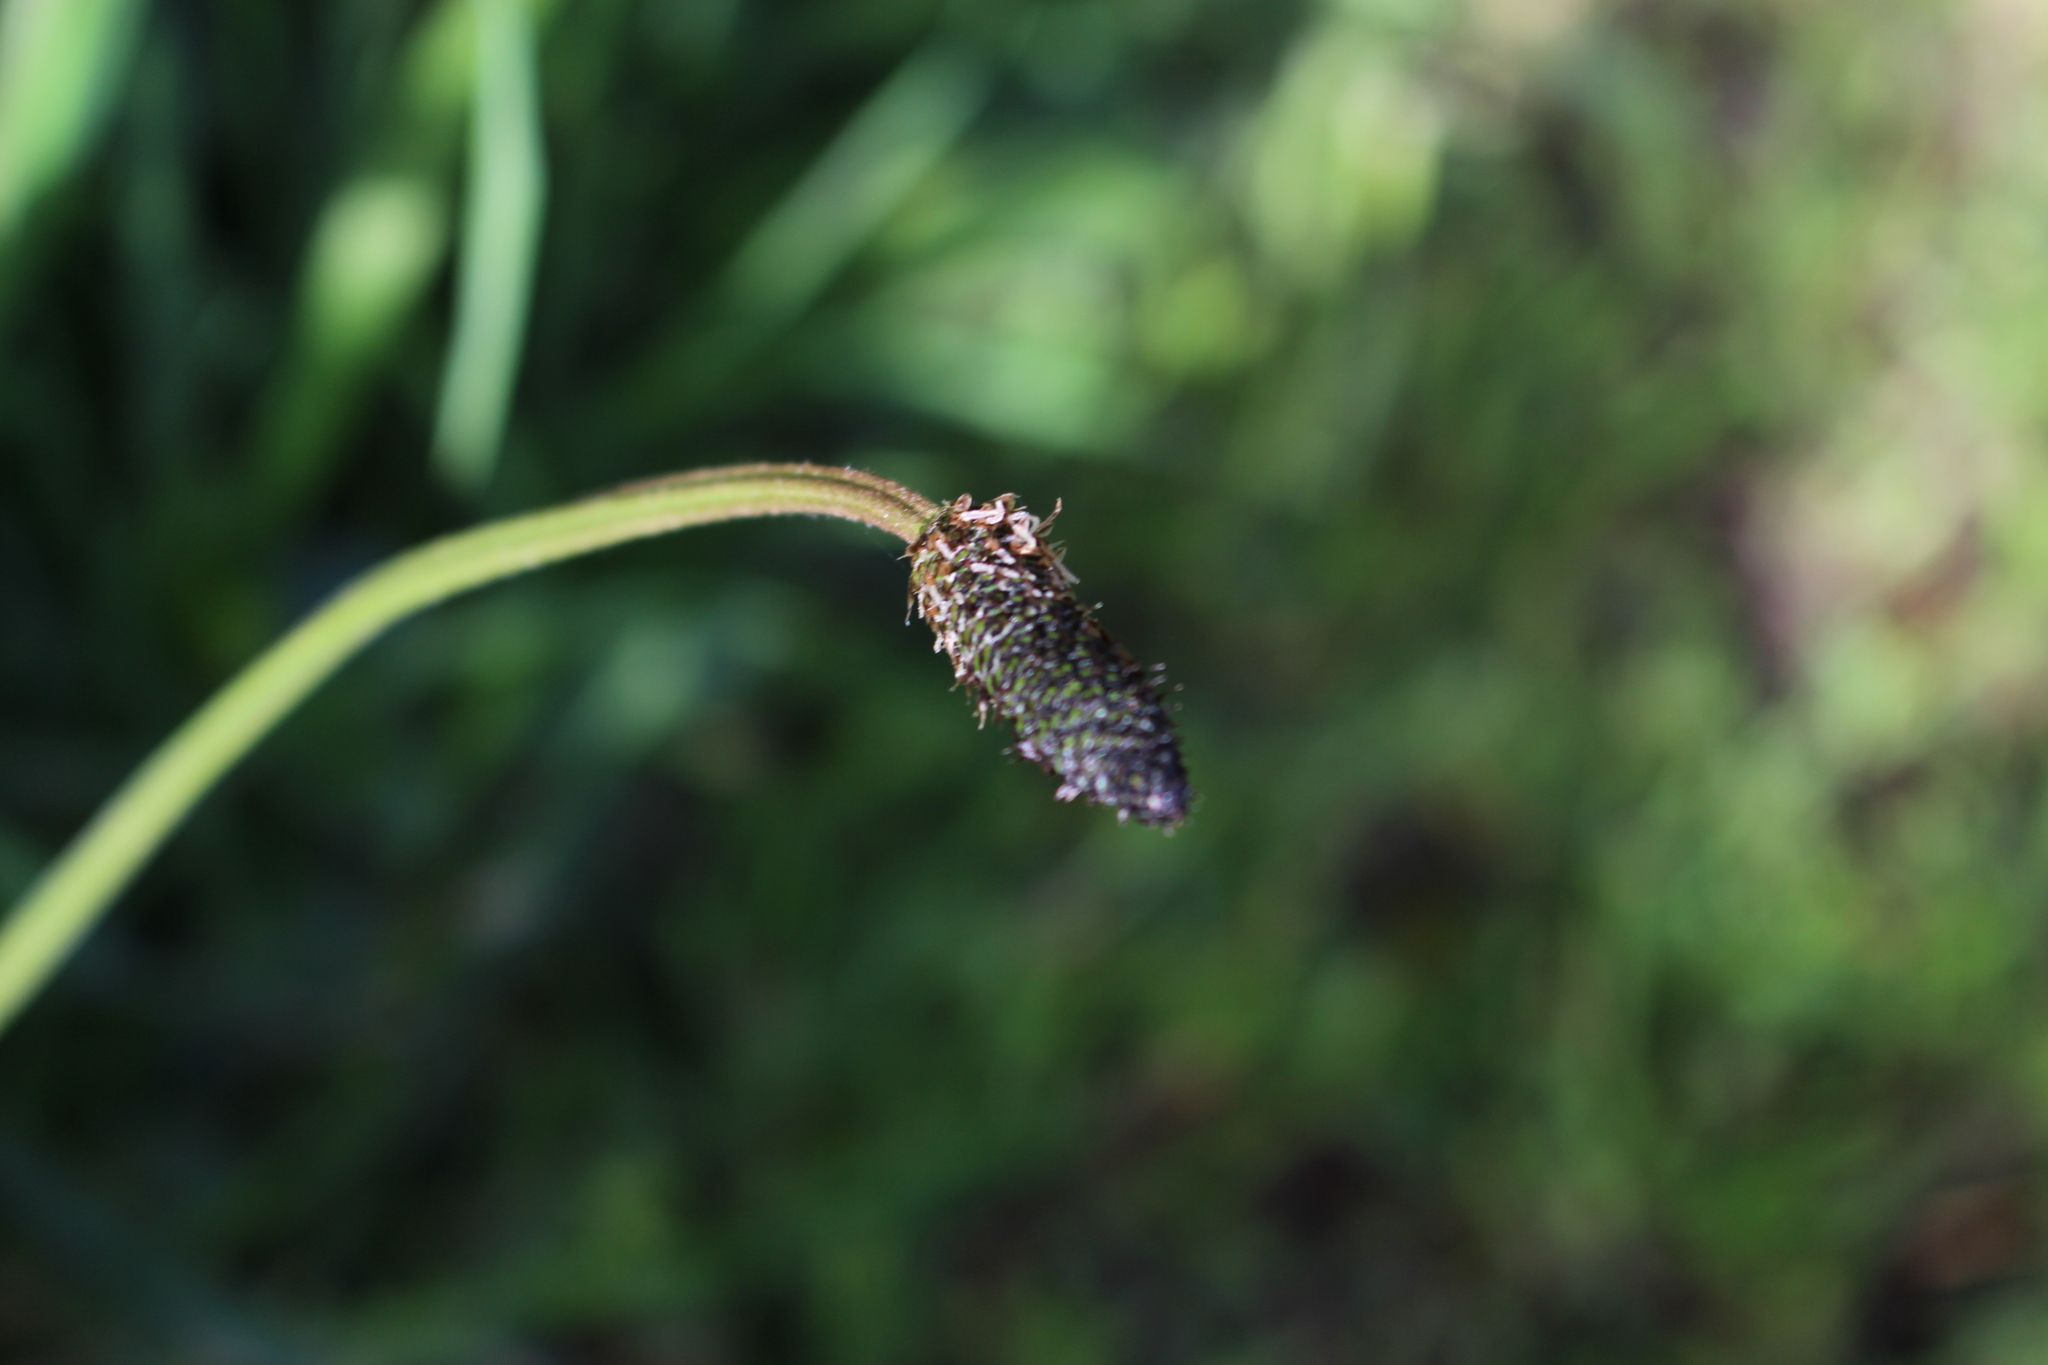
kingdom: Plantae
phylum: Tracheophyta
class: Magnoliopsida
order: Lamiales
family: Plantaginaceae
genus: Plantago
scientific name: Plantago lanceolata
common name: Ribwort plantain
